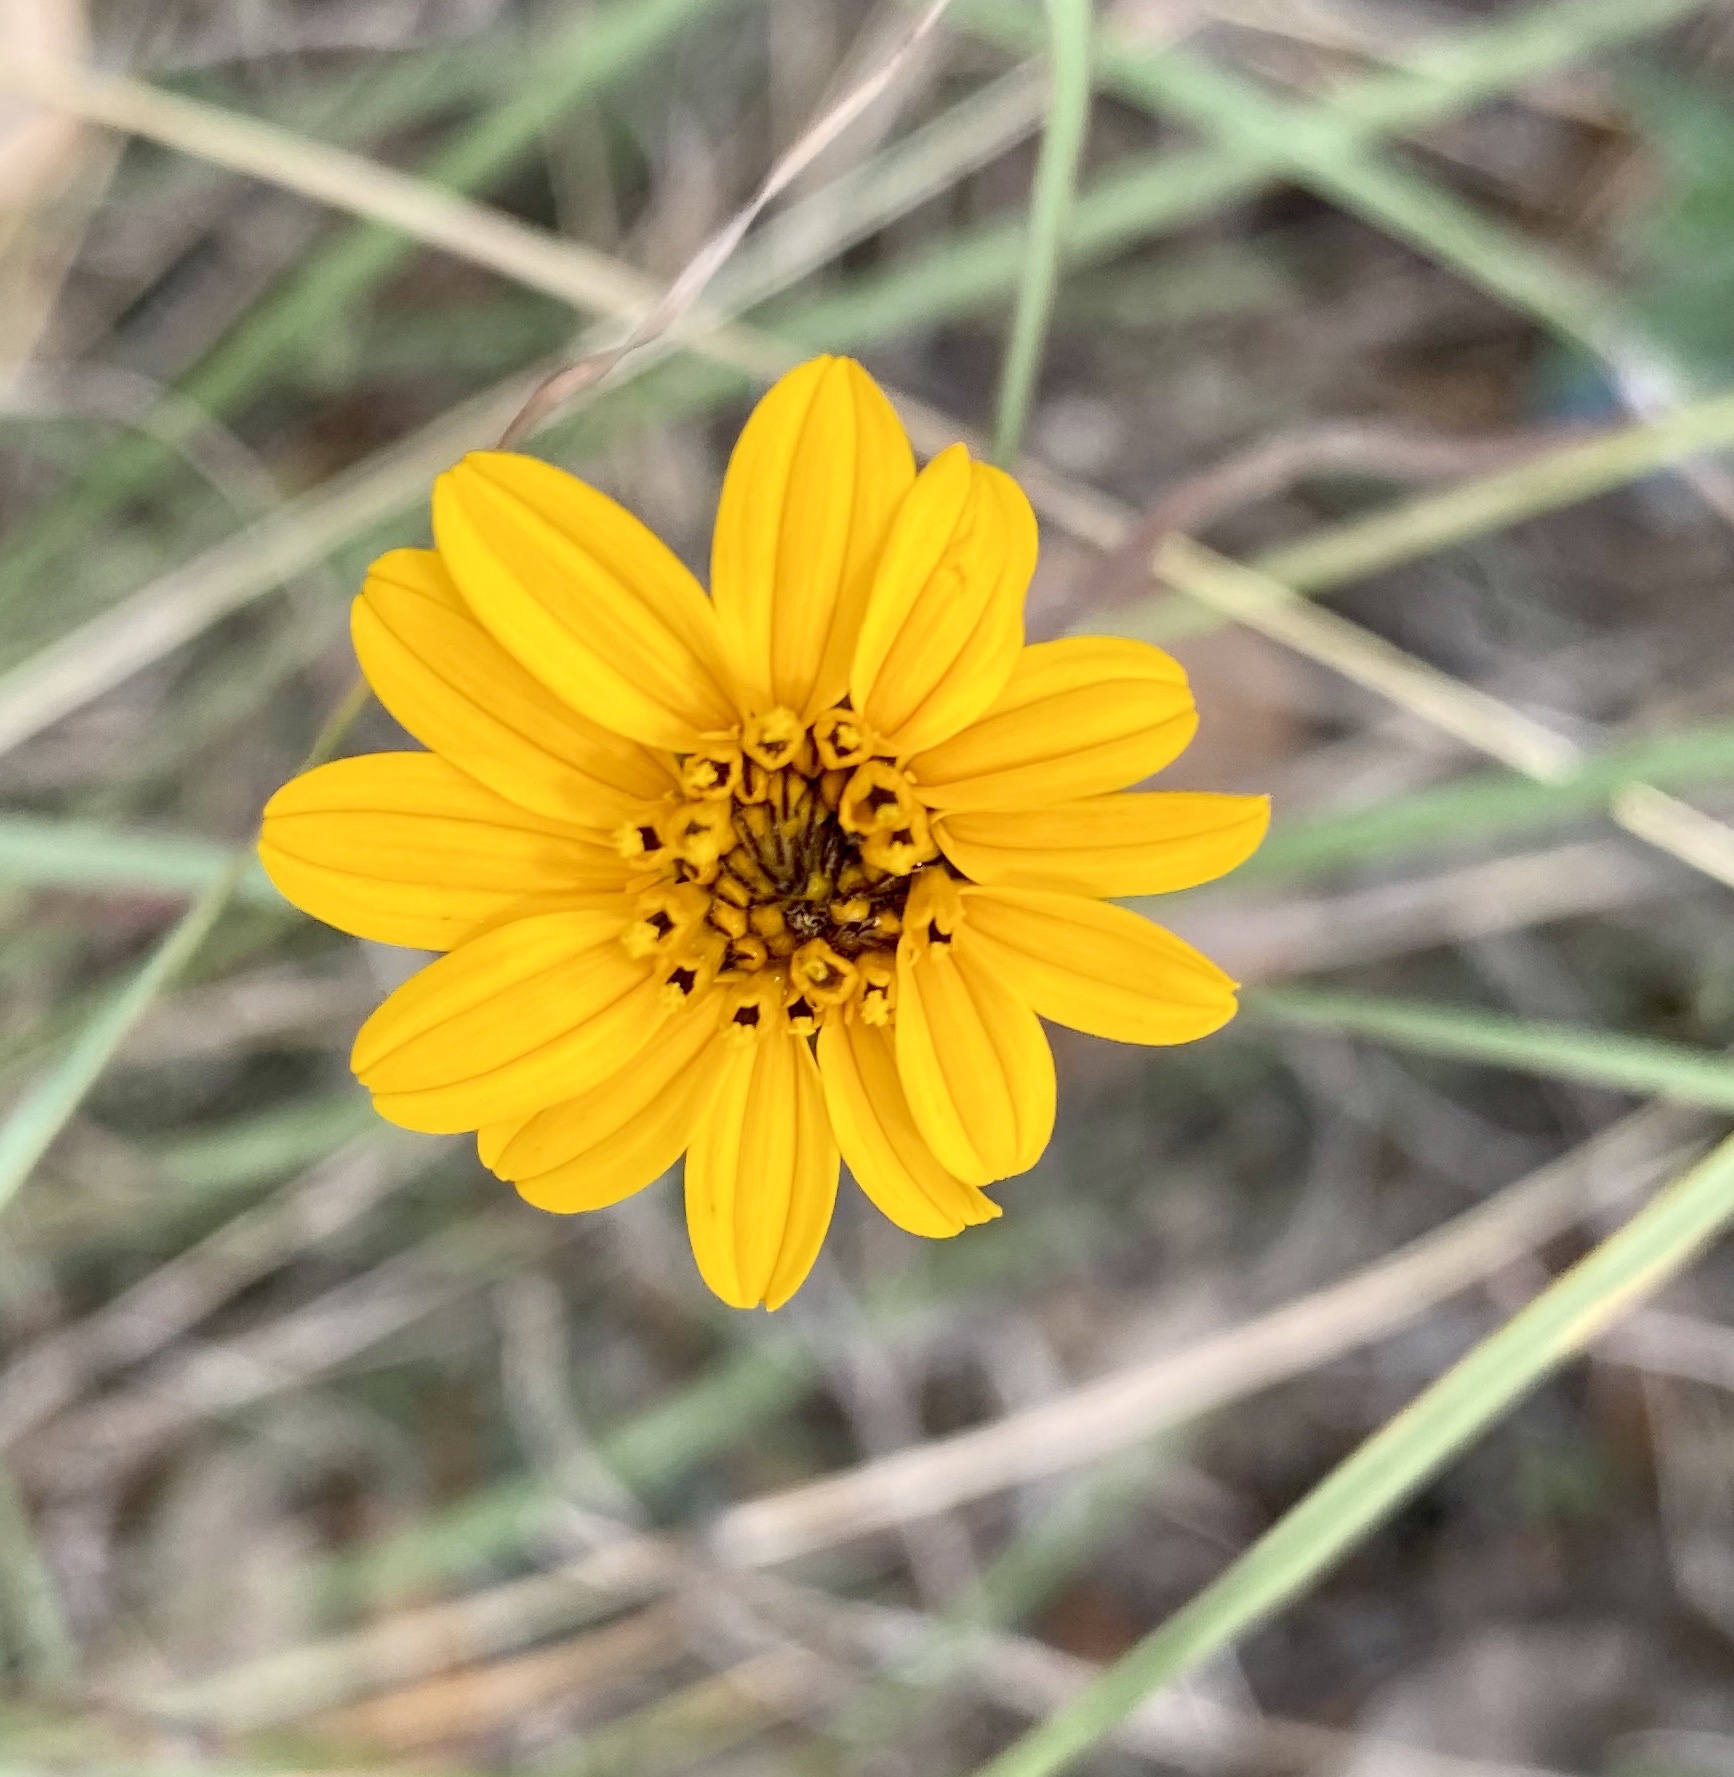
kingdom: Plantae
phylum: Tracheophyta
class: Magnoliopsida
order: Asterales
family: Asteraceae
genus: Wedelia
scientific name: Wedelia acapulcensis
